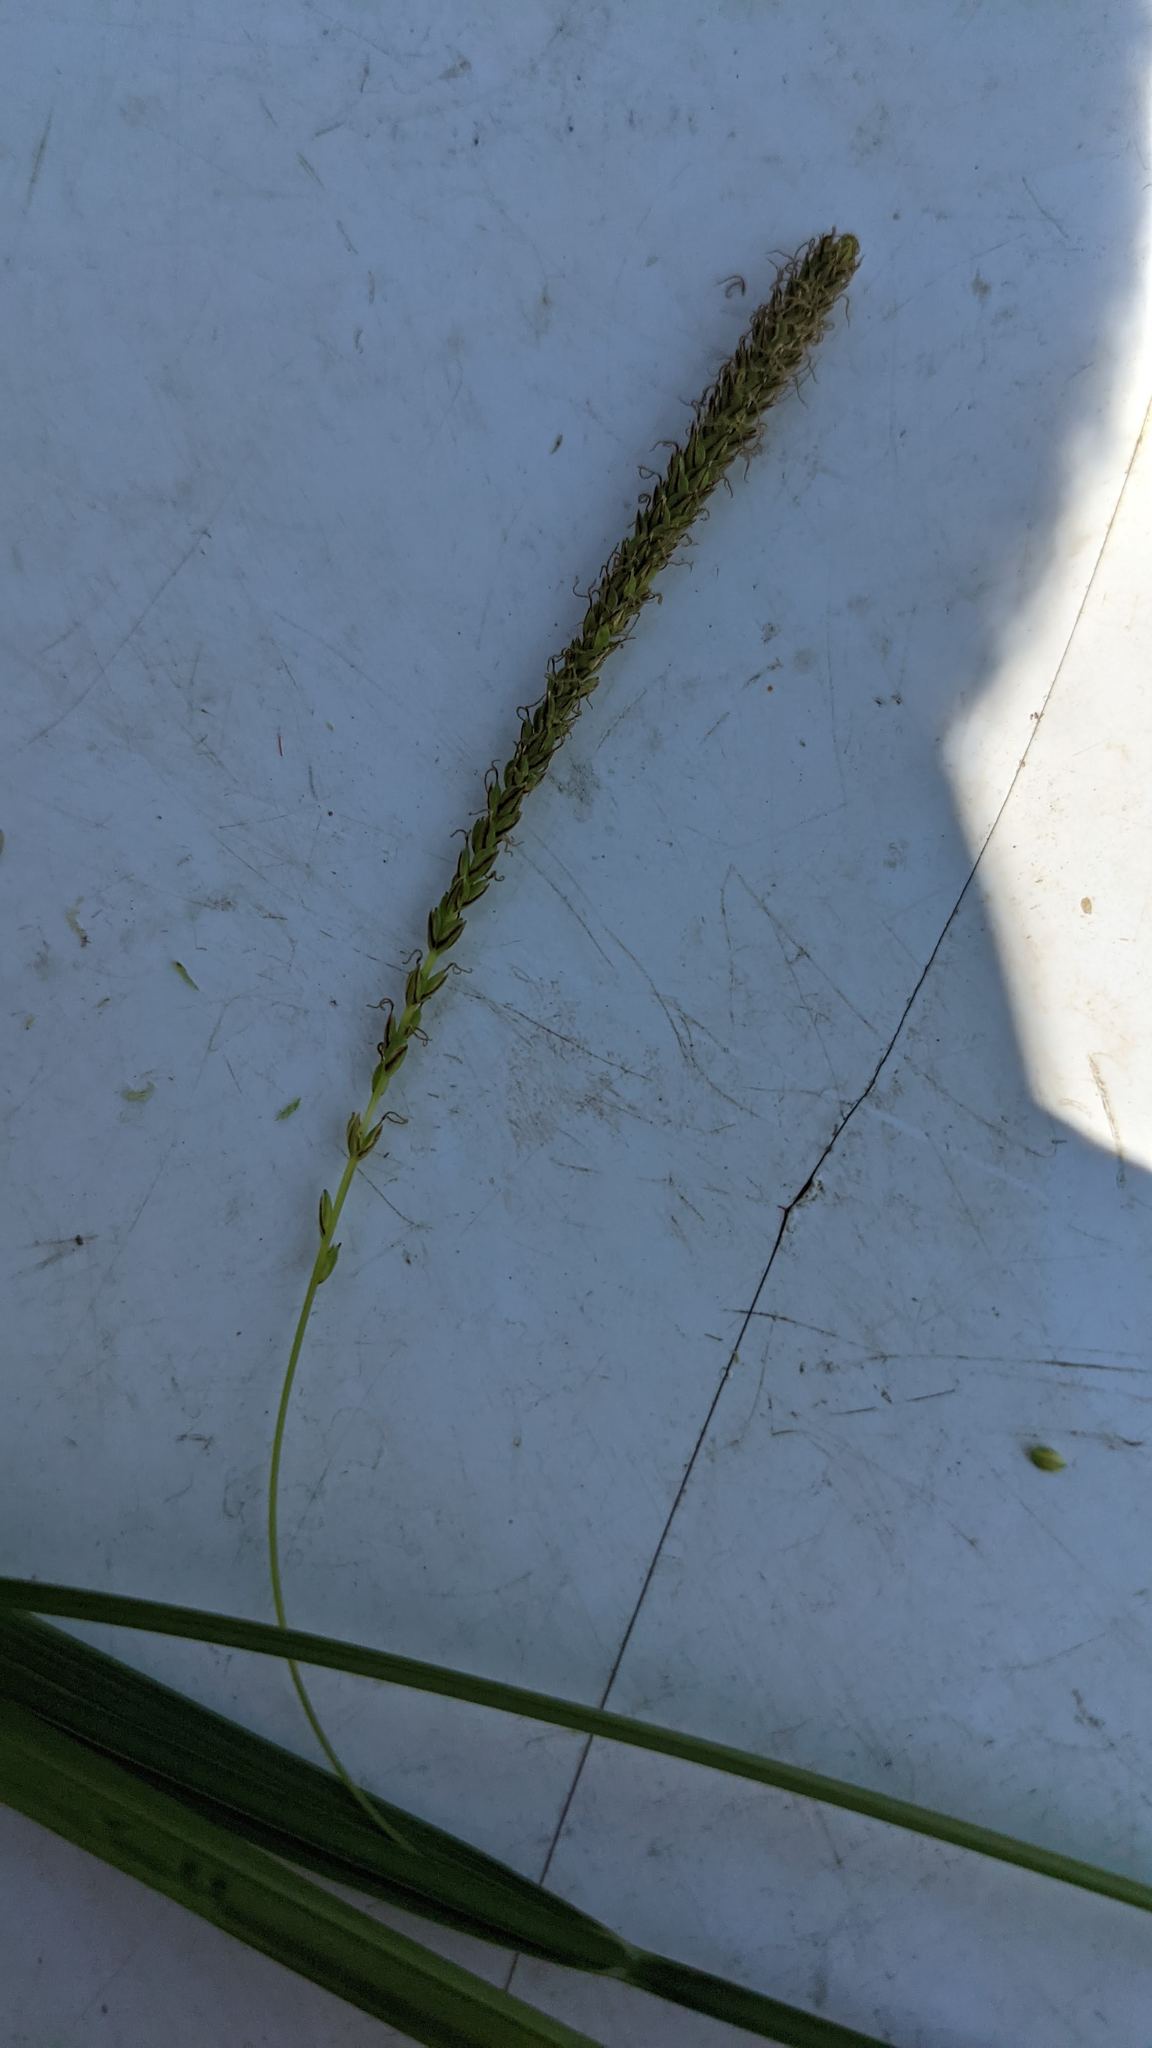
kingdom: Plantae
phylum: Tracheophyta
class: Liliopsida
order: Poales
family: Cyperaceae
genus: Carex
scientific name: Carex aquatilis
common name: Water sedge
